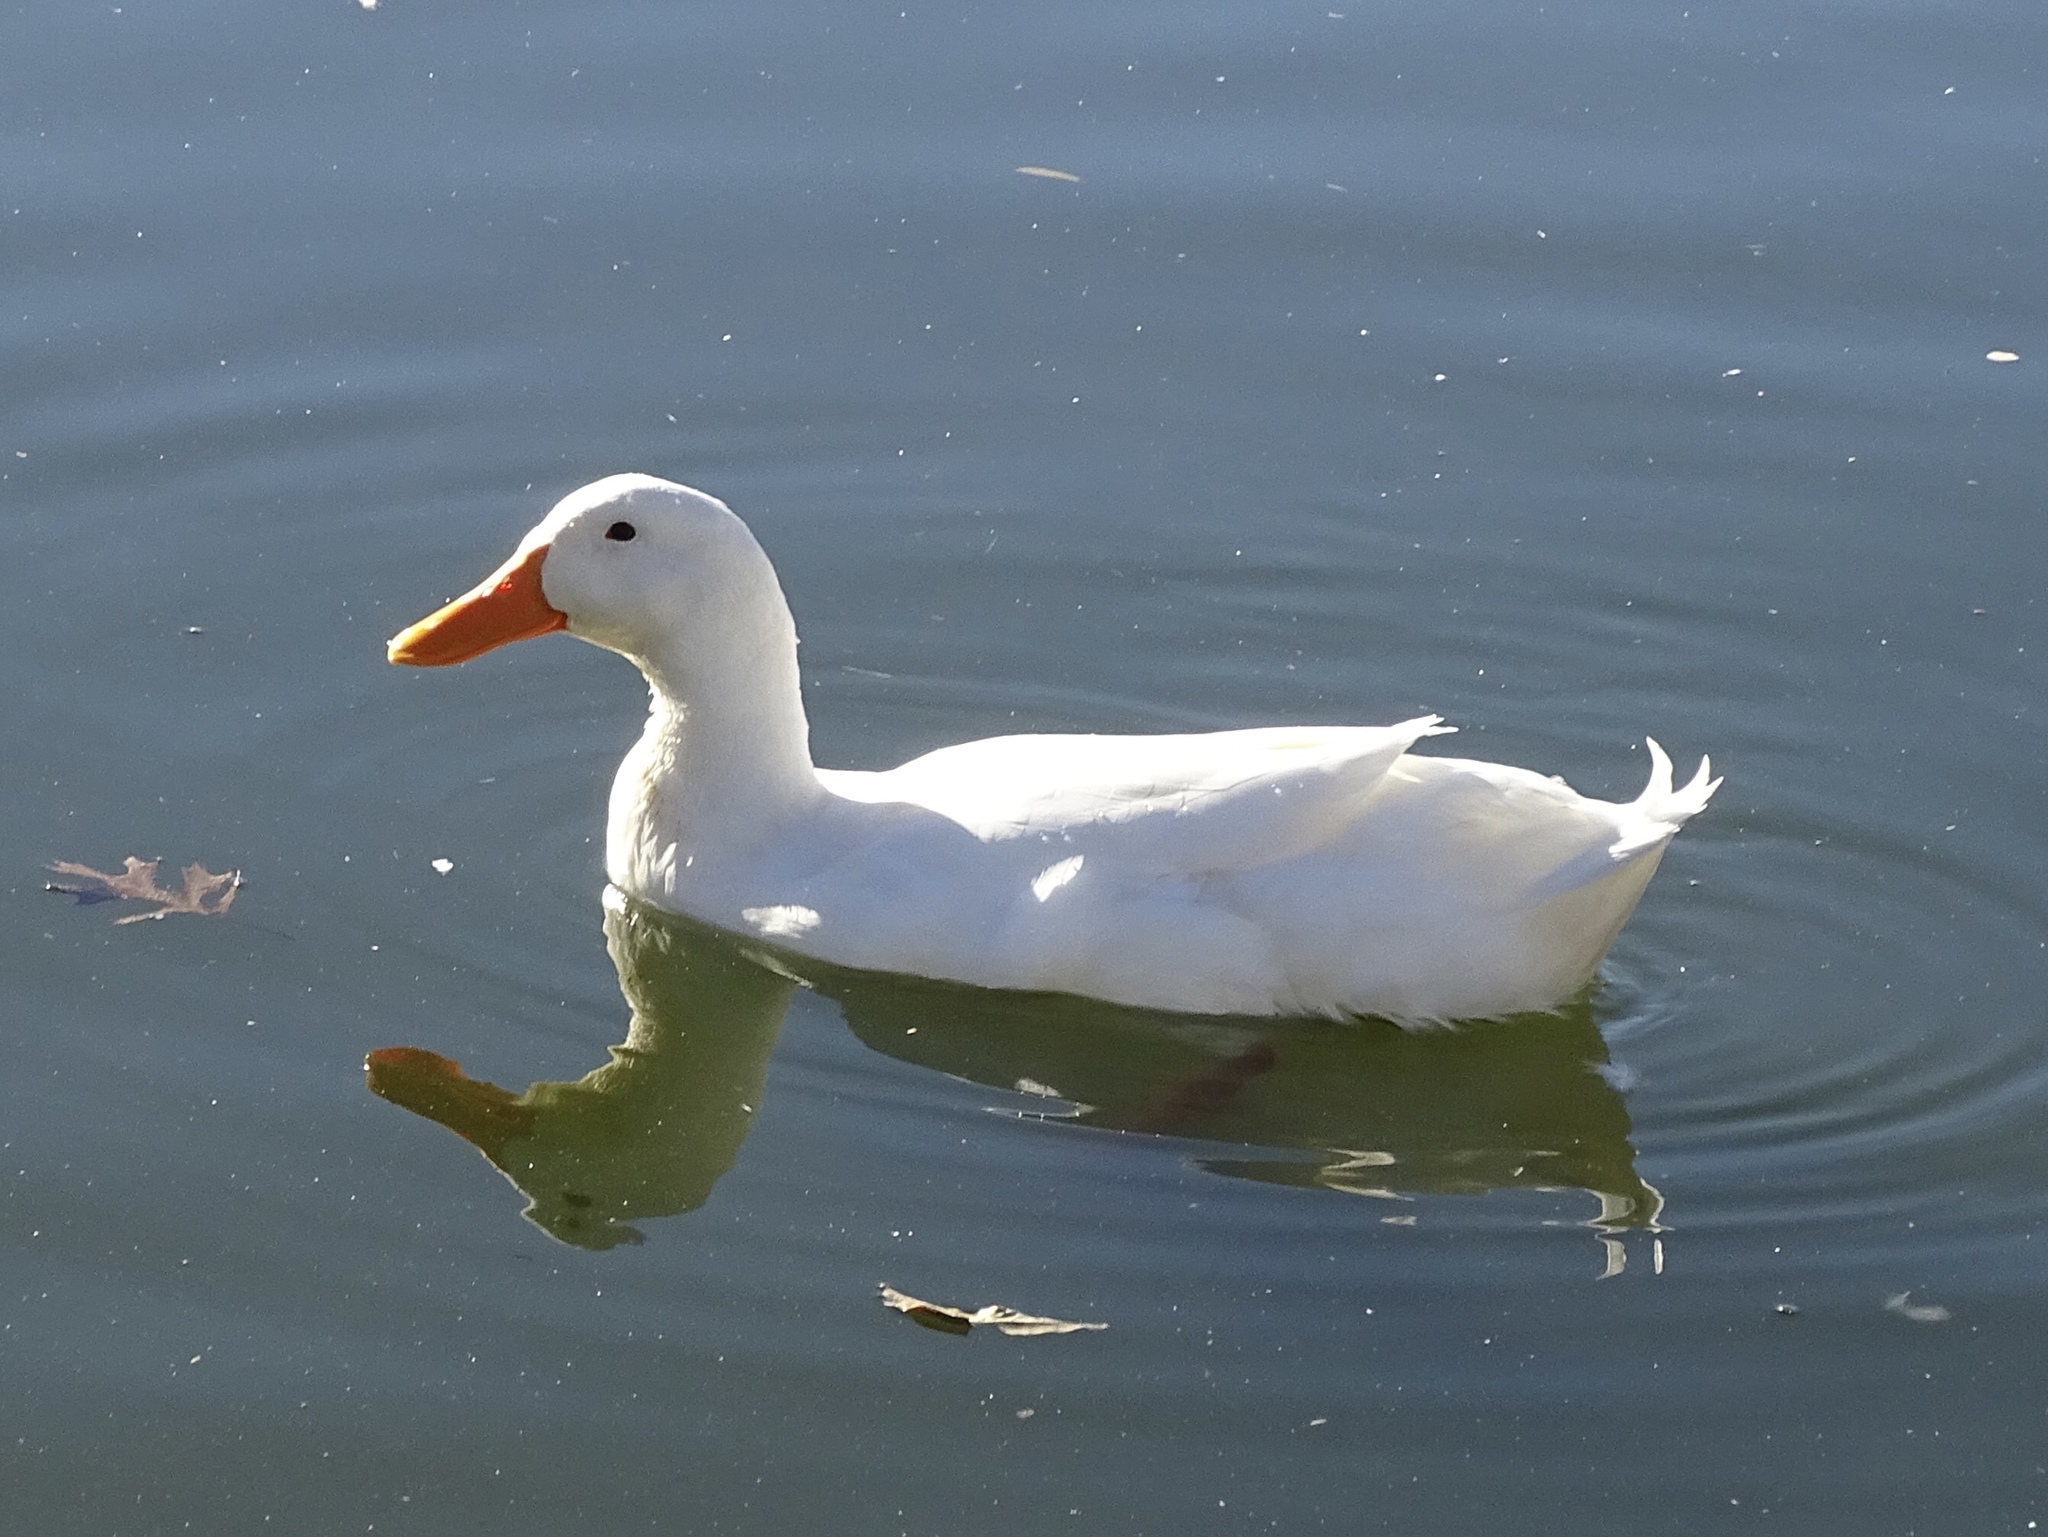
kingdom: Animalia
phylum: Chordata
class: Aves
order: Anseriformes
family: Anatidae
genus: Anas
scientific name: Anas platyrhynchos
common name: Mallard
